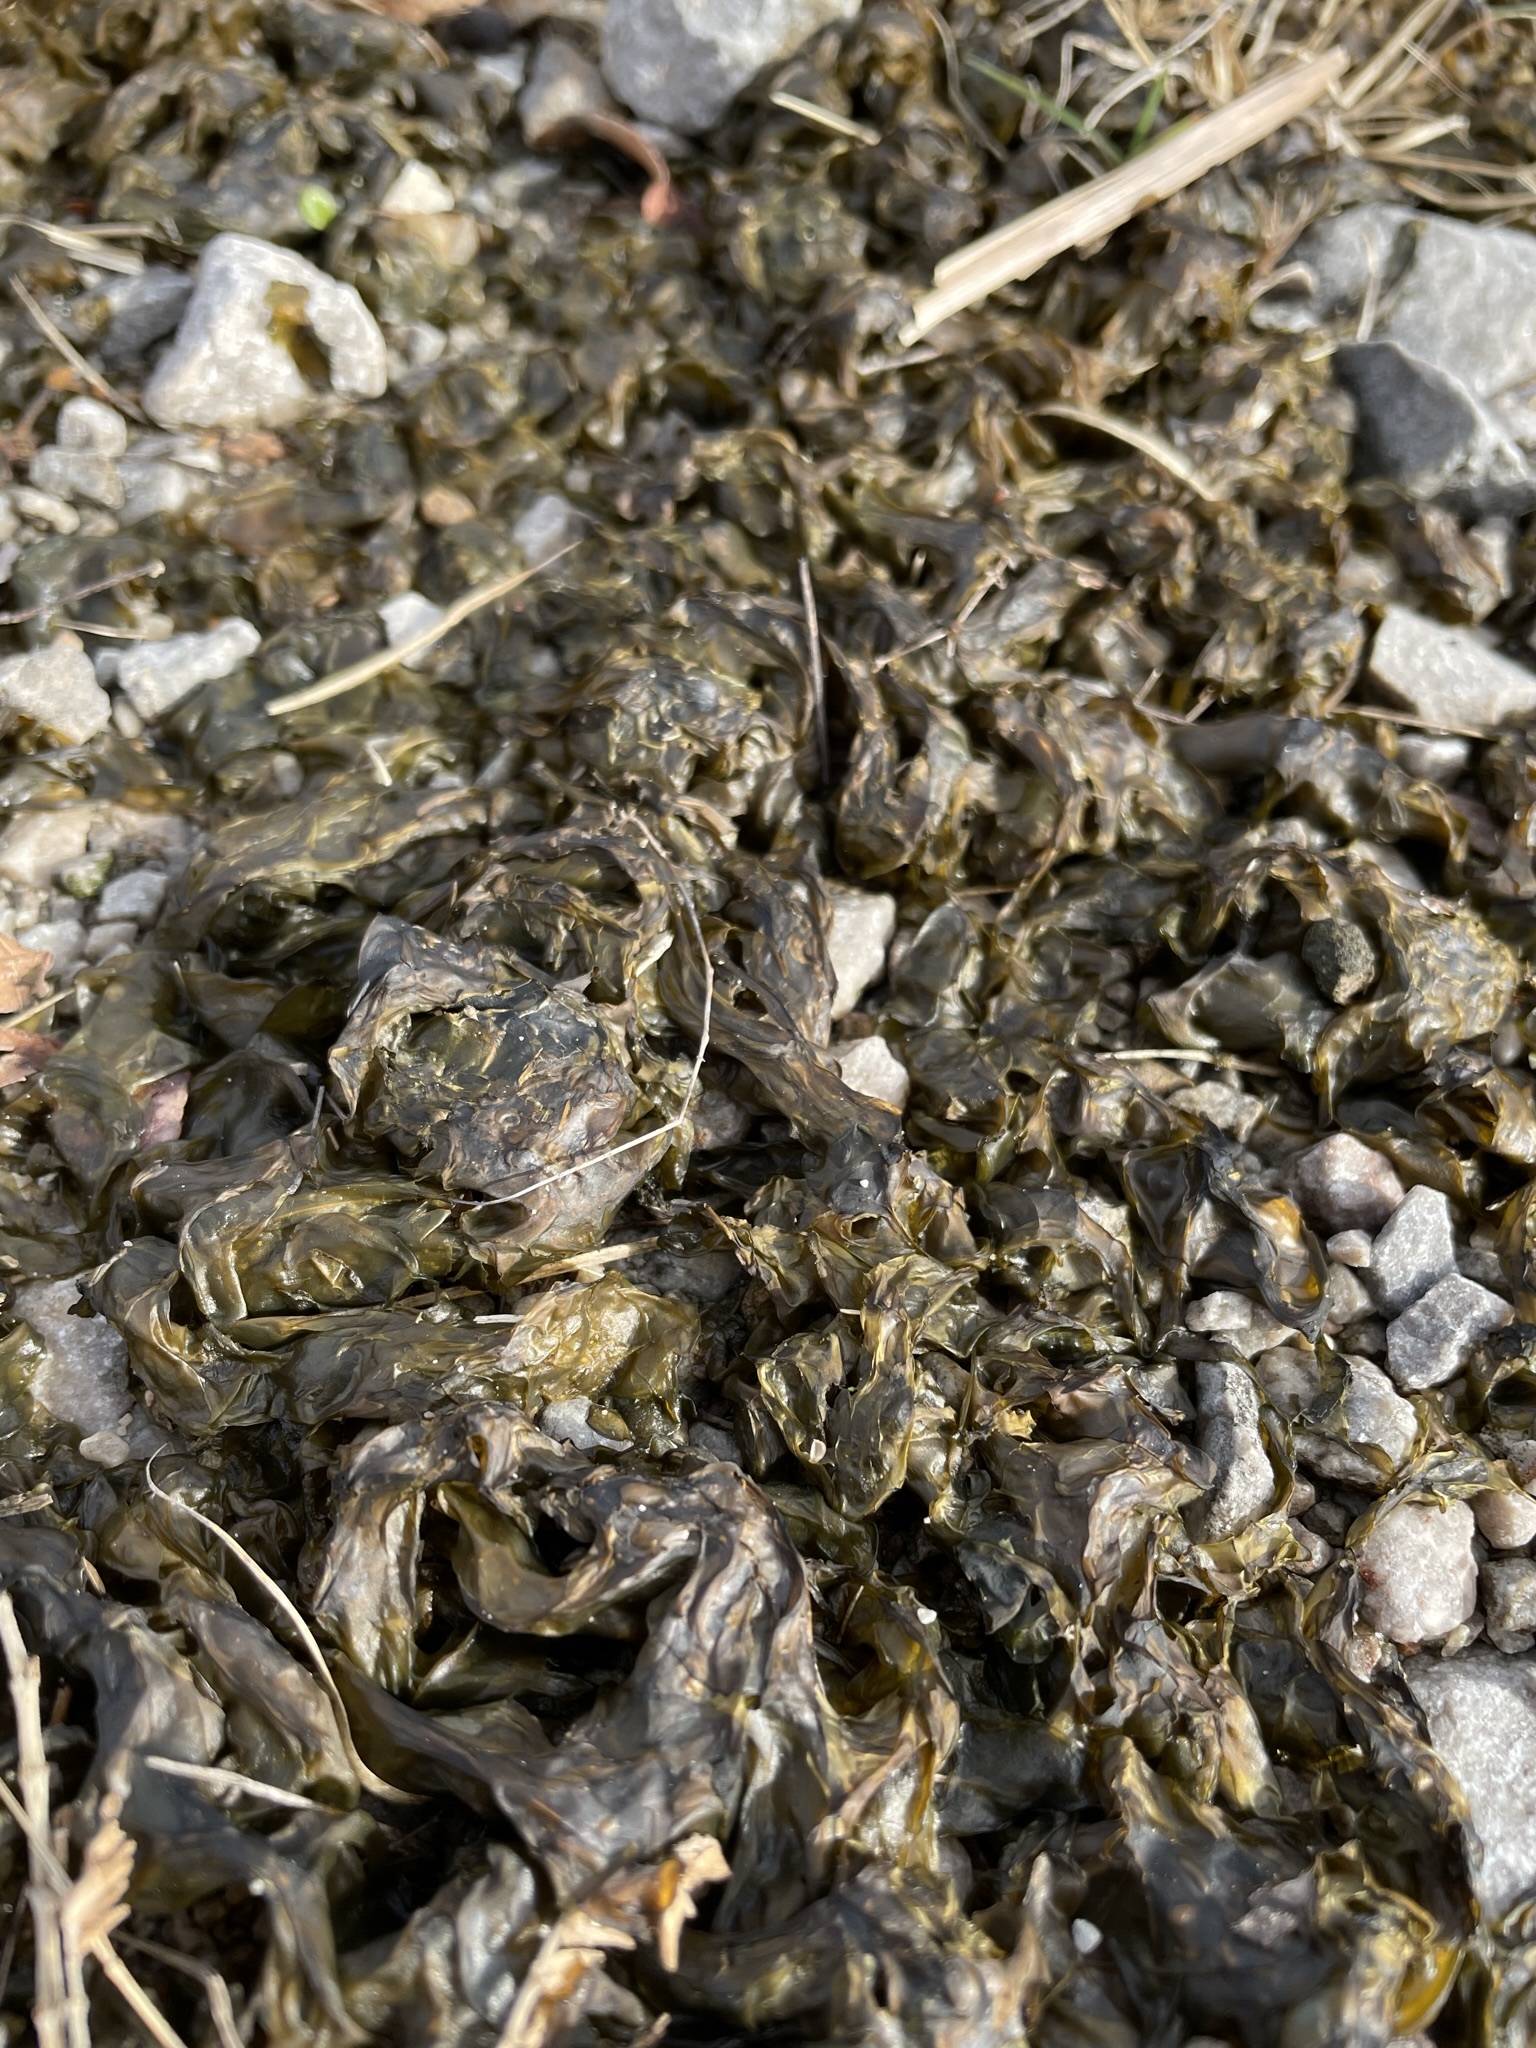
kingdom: Bacteria
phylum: Cyanobacteria
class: Cyanobacteriia
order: Cyanobacteriales
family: Nostocaceae
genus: Nostoc
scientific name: Nostoc commune
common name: Star jelly
